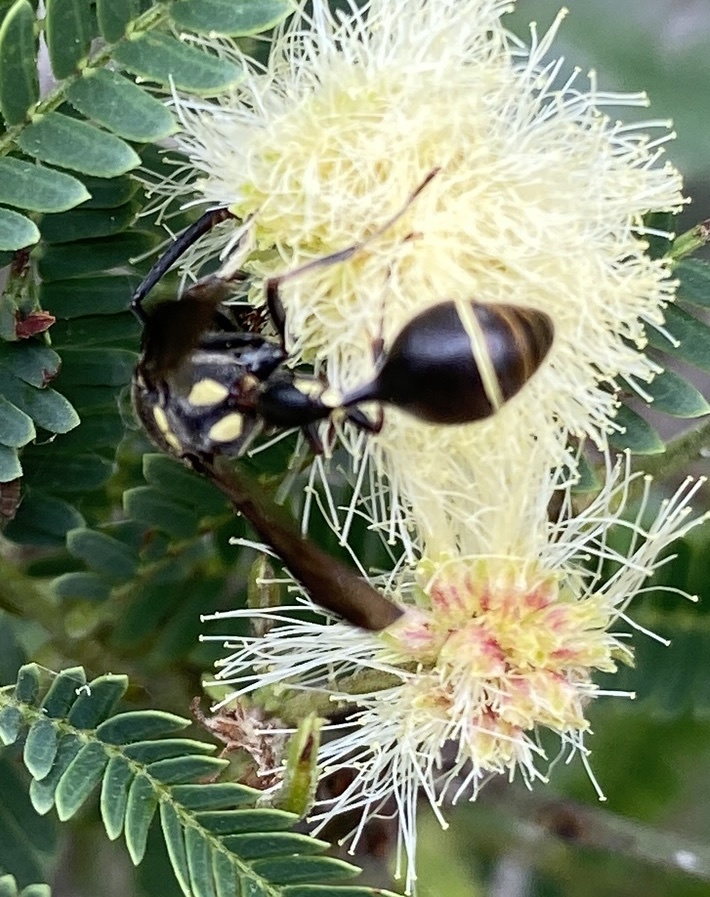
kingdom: Animalia
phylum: Arthropoda
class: Insecta
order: Hymenoptera
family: Eumenidae
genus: Zethus
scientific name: Zethus miscogaster
